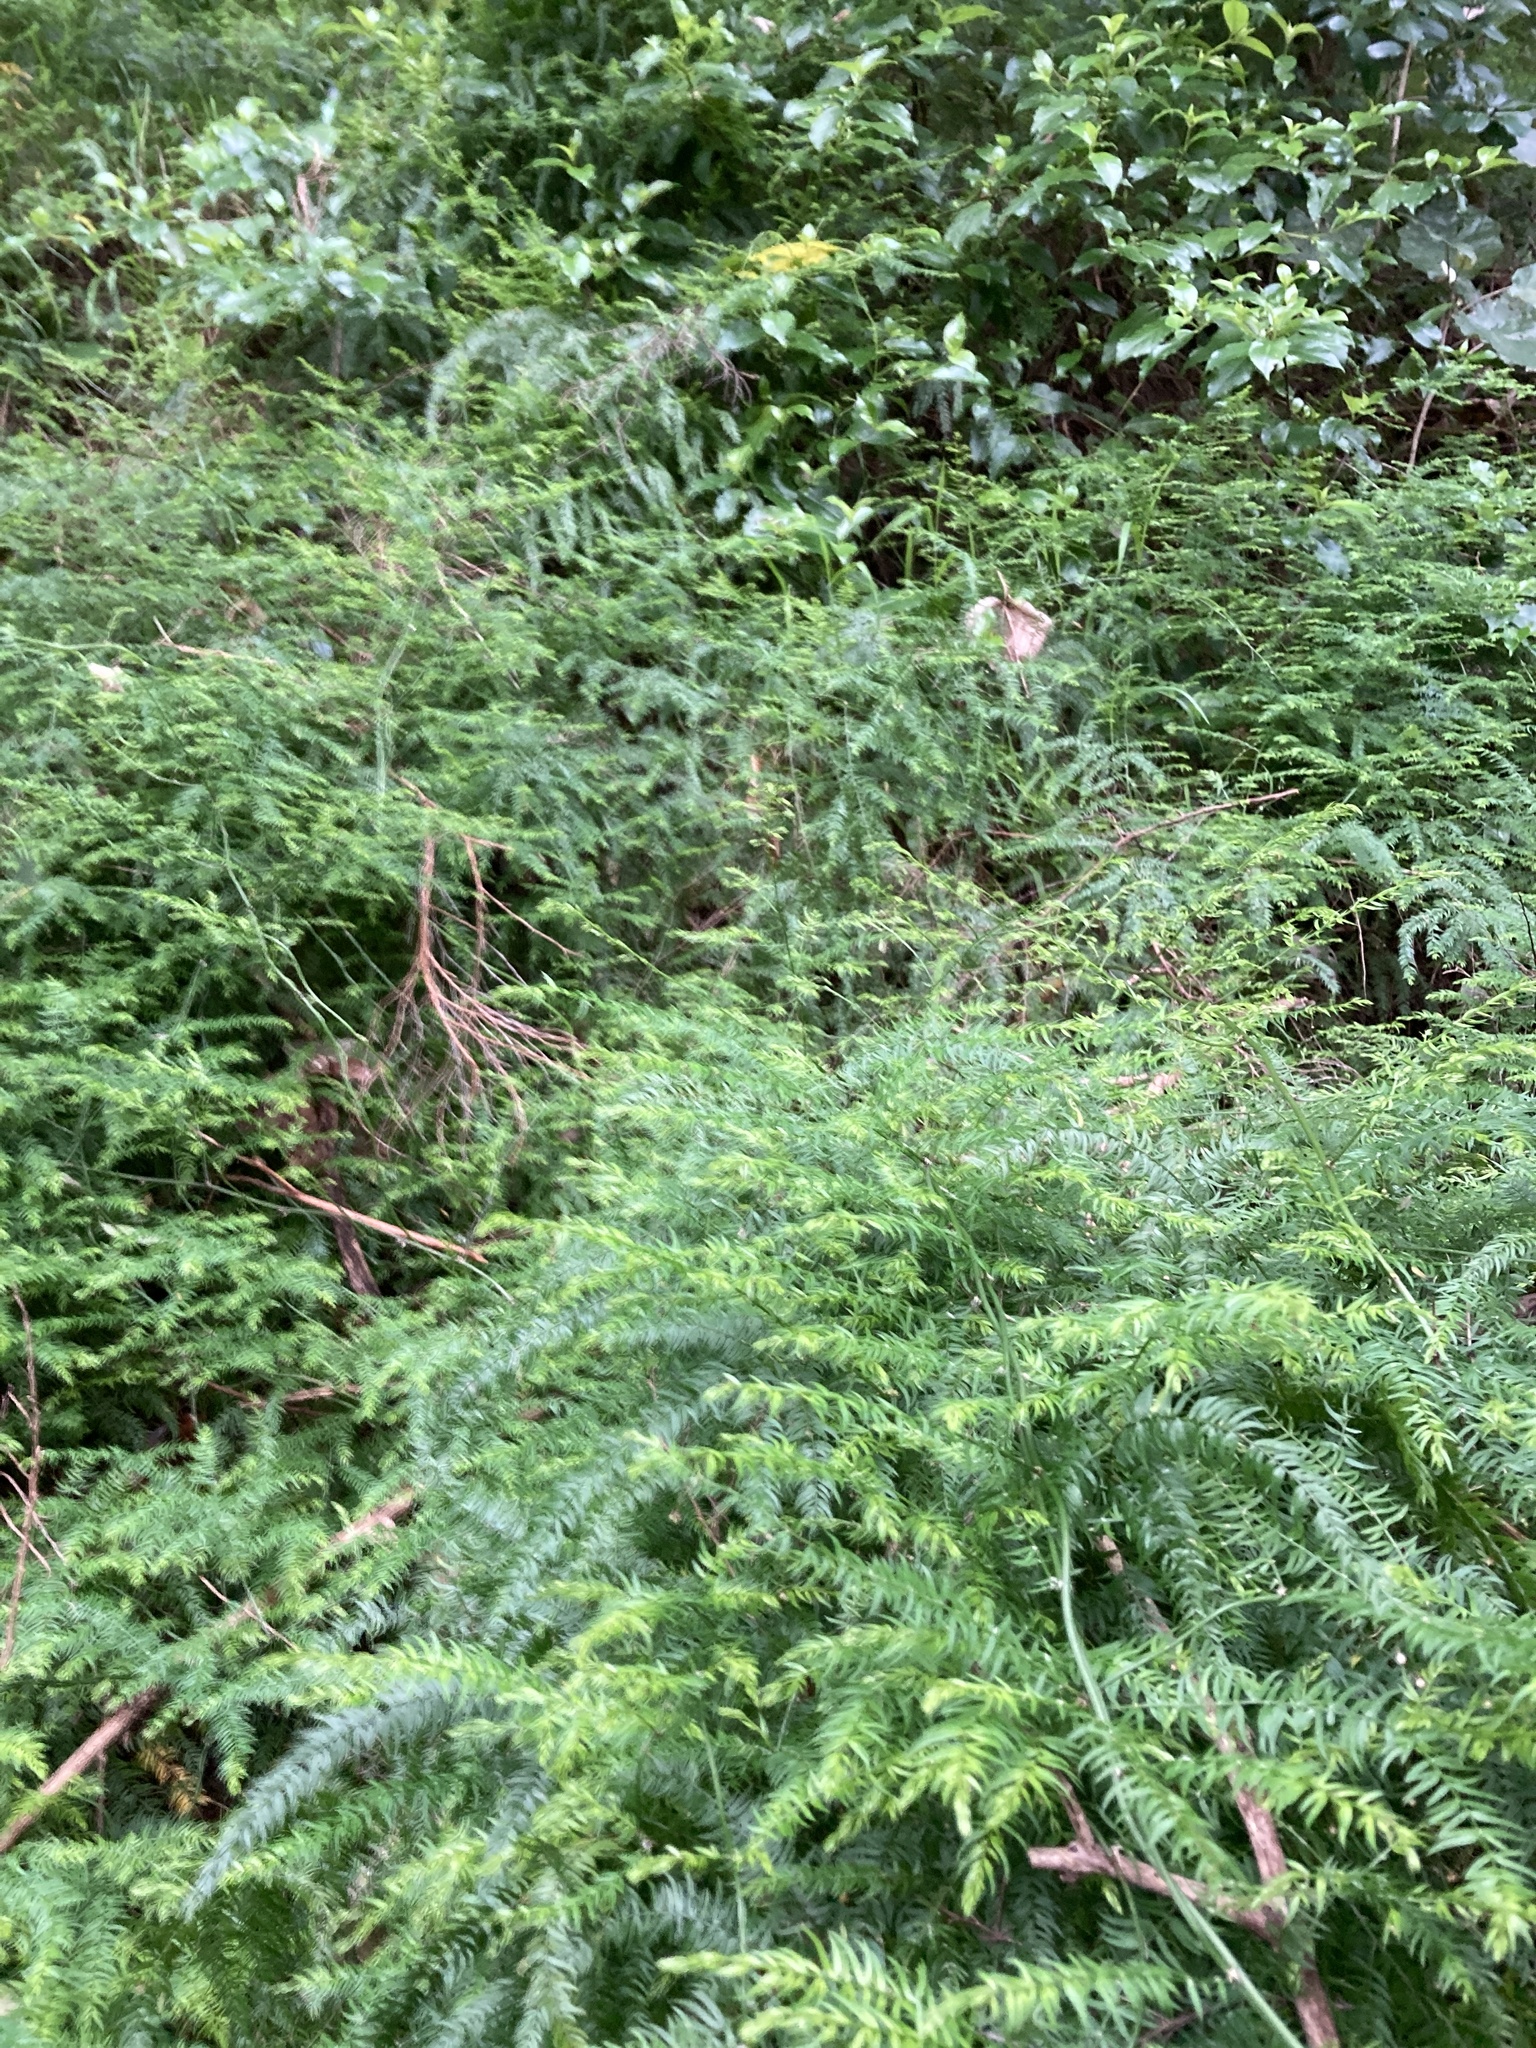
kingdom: Plantae
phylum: Tracheophyta
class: Liliopsida
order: Asparagales
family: Asparagaceae
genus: Asparagus
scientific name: Asparagus scandens
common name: Asparagus-fern
